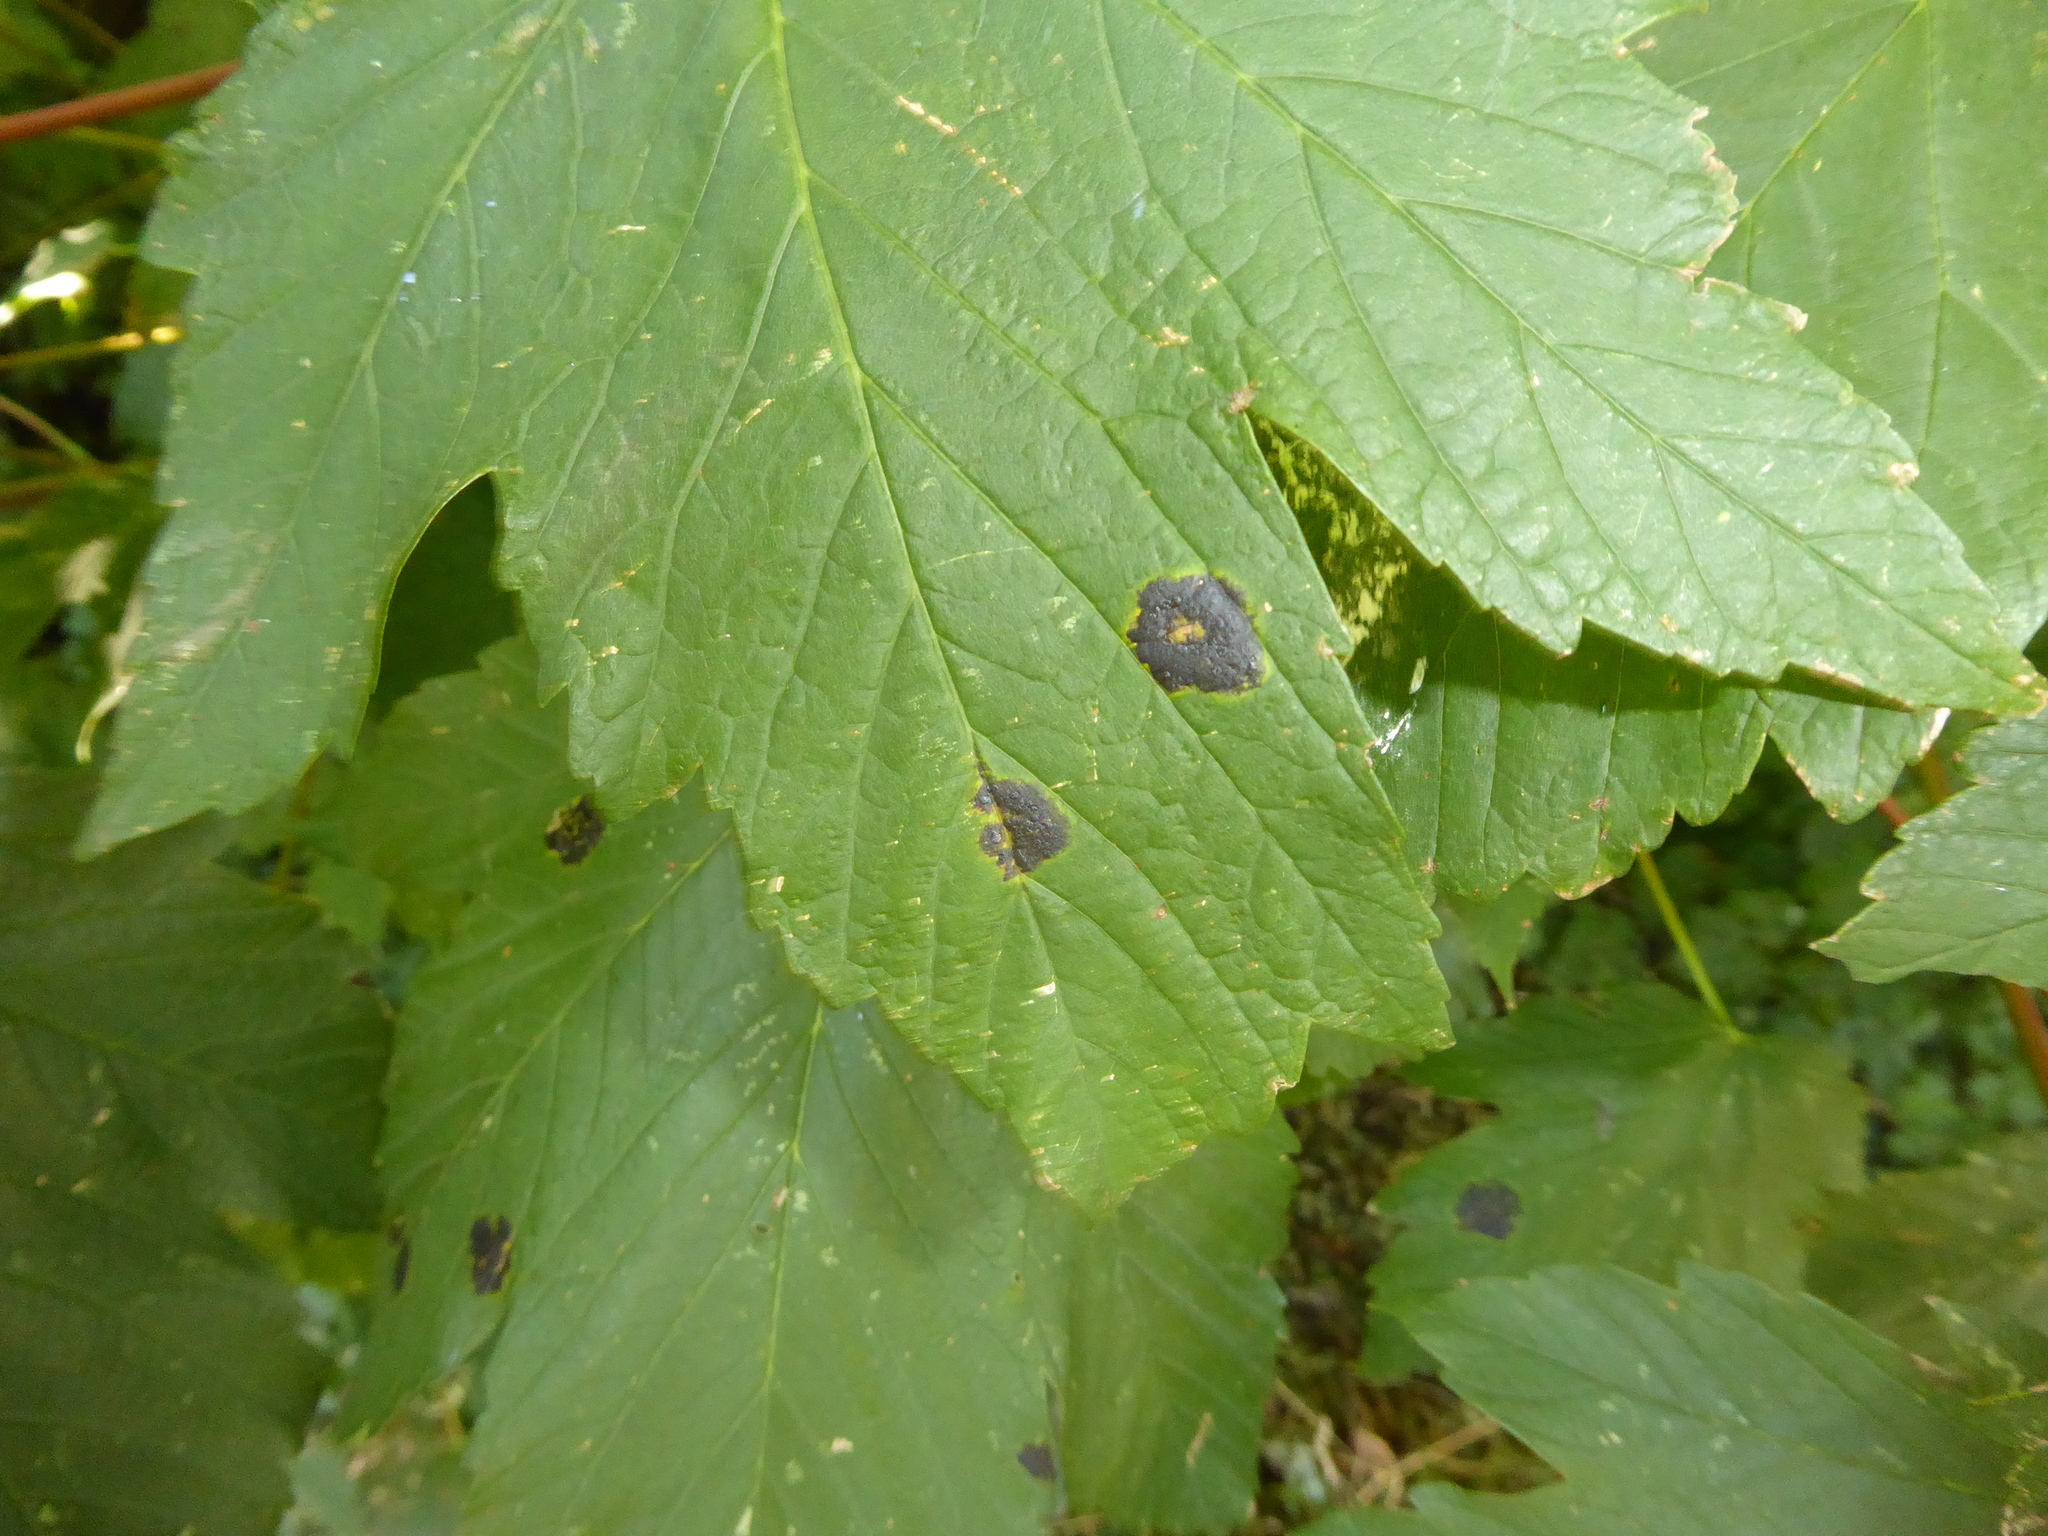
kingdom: Fungi
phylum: Ascomycota
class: Leotiomycetes
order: Rhytismatales
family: Rhytismataceae
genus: Rhytisma
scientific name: Rhytisma acerinum
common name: European tar spot
